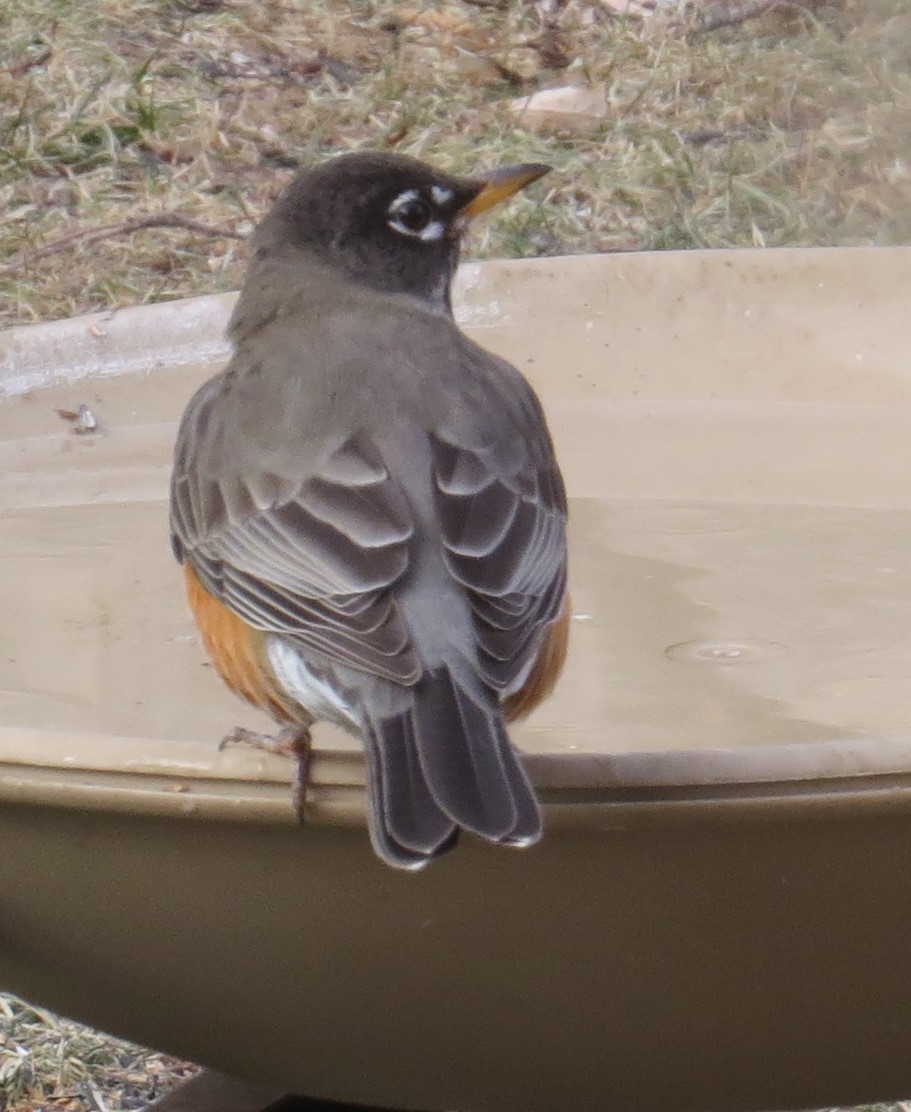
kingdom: Animalia
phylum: Chordata
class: Aves
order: Passeriformes
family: Turdidae
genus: Turdus
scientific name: Turdus migratorius
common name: American robin
